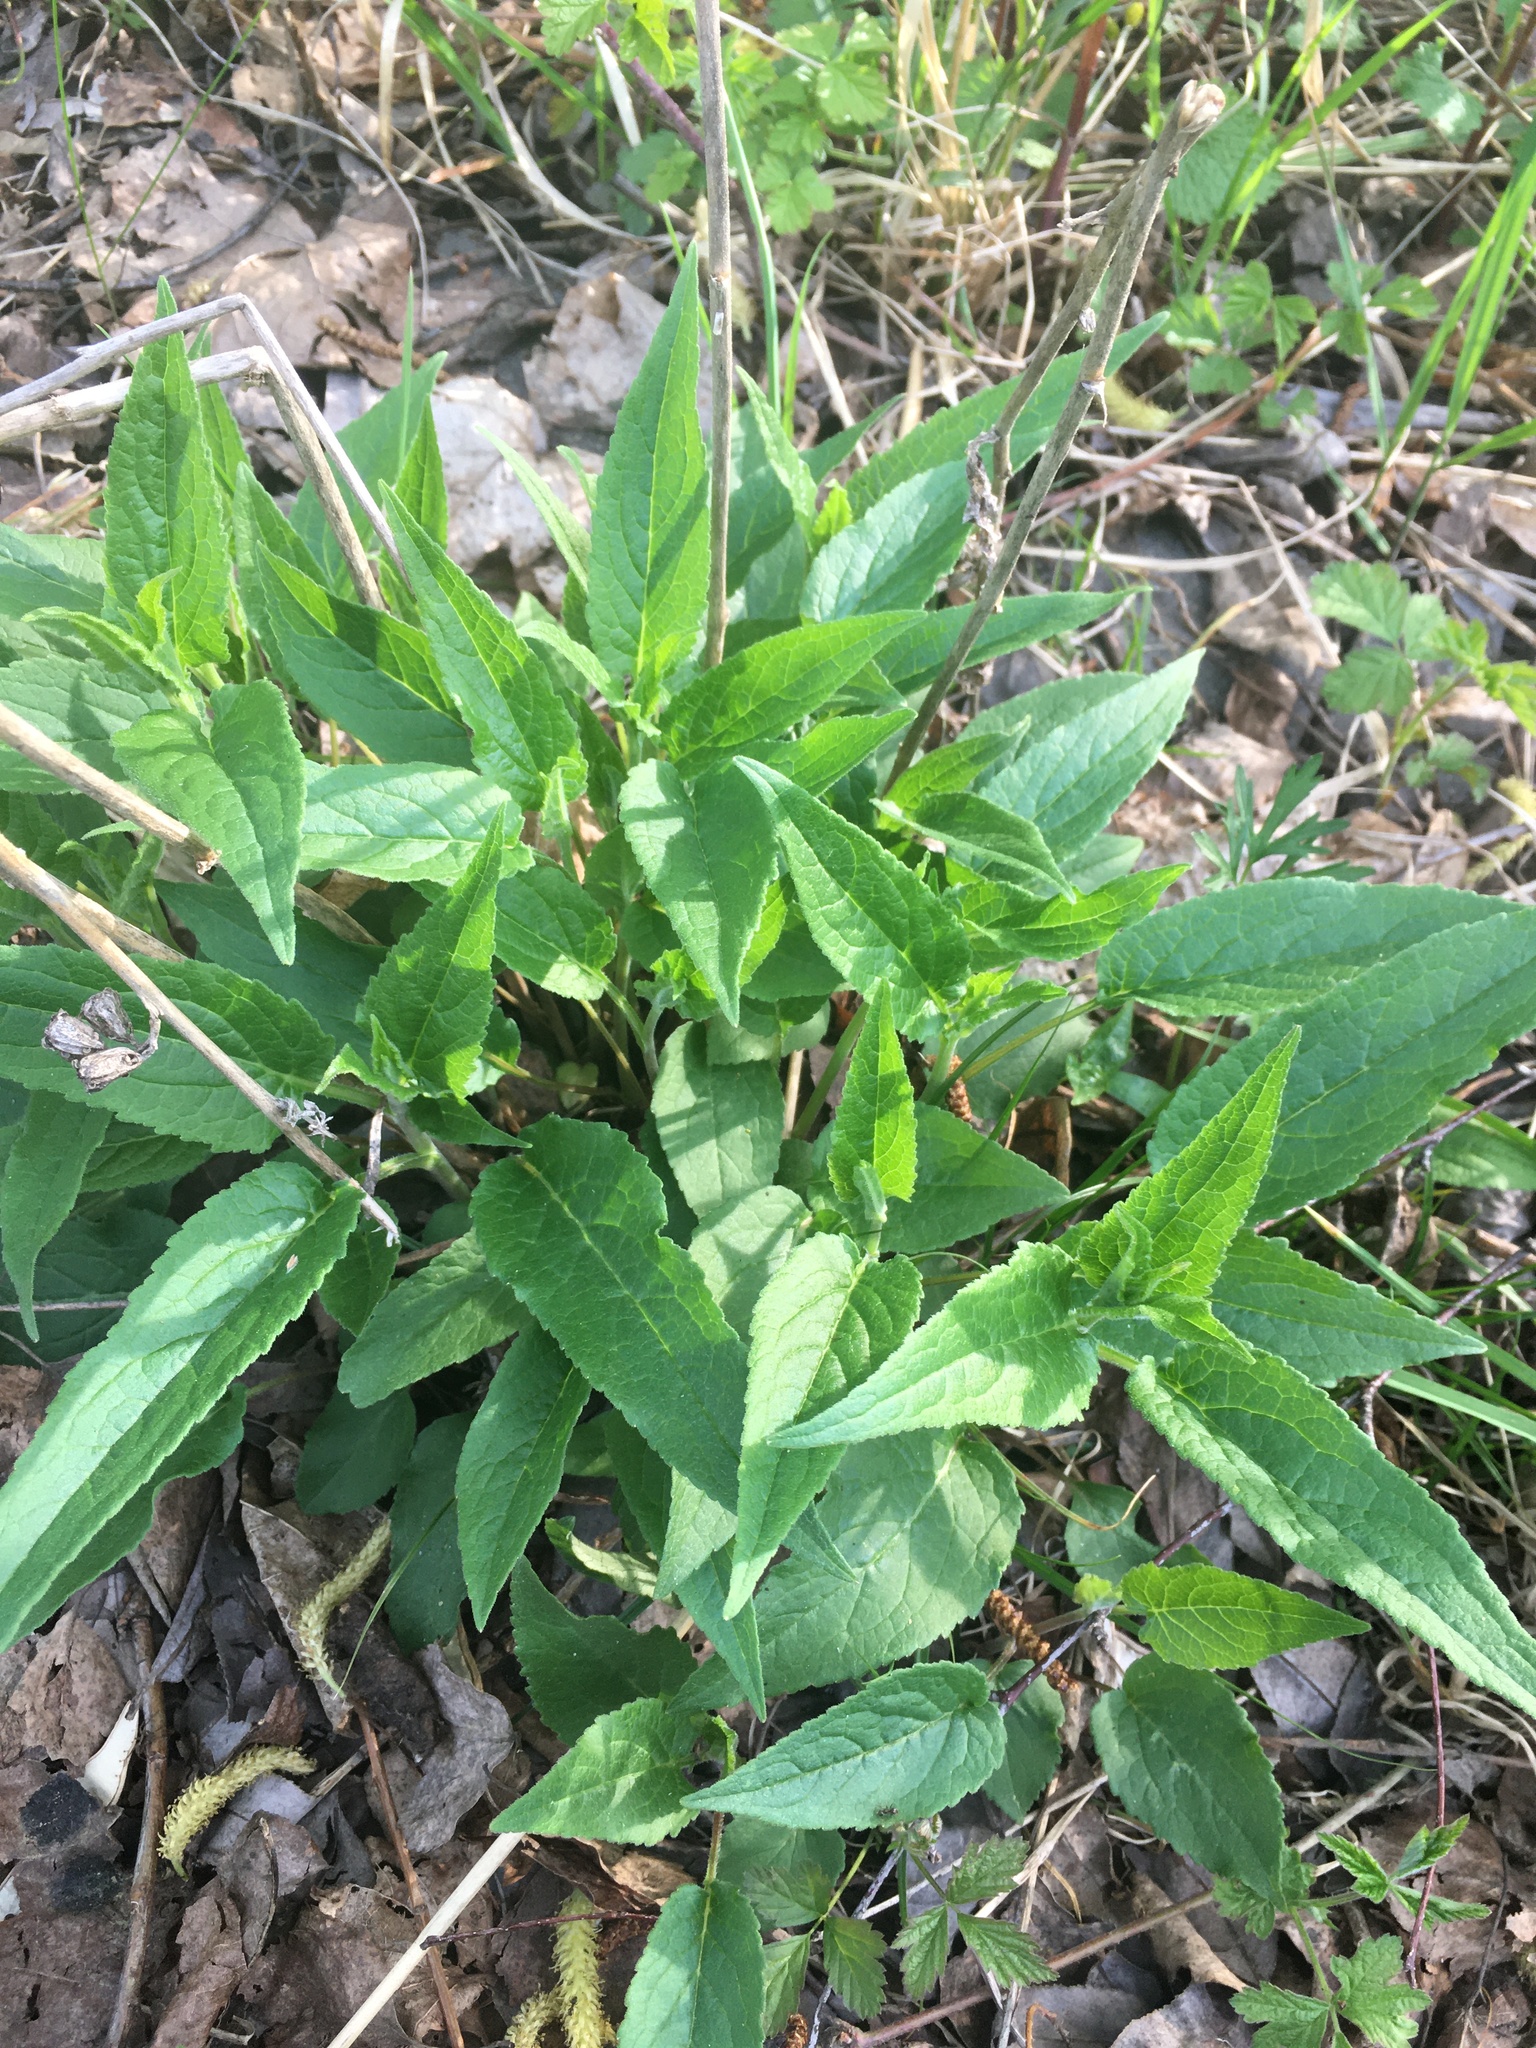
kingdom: Plantae
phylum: Tracheophyta
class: Magnoliopsida
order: Asterales
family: Campanulaceae
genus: Campanula
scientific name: Campanula rapunculoides
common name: Creeping bellflower
